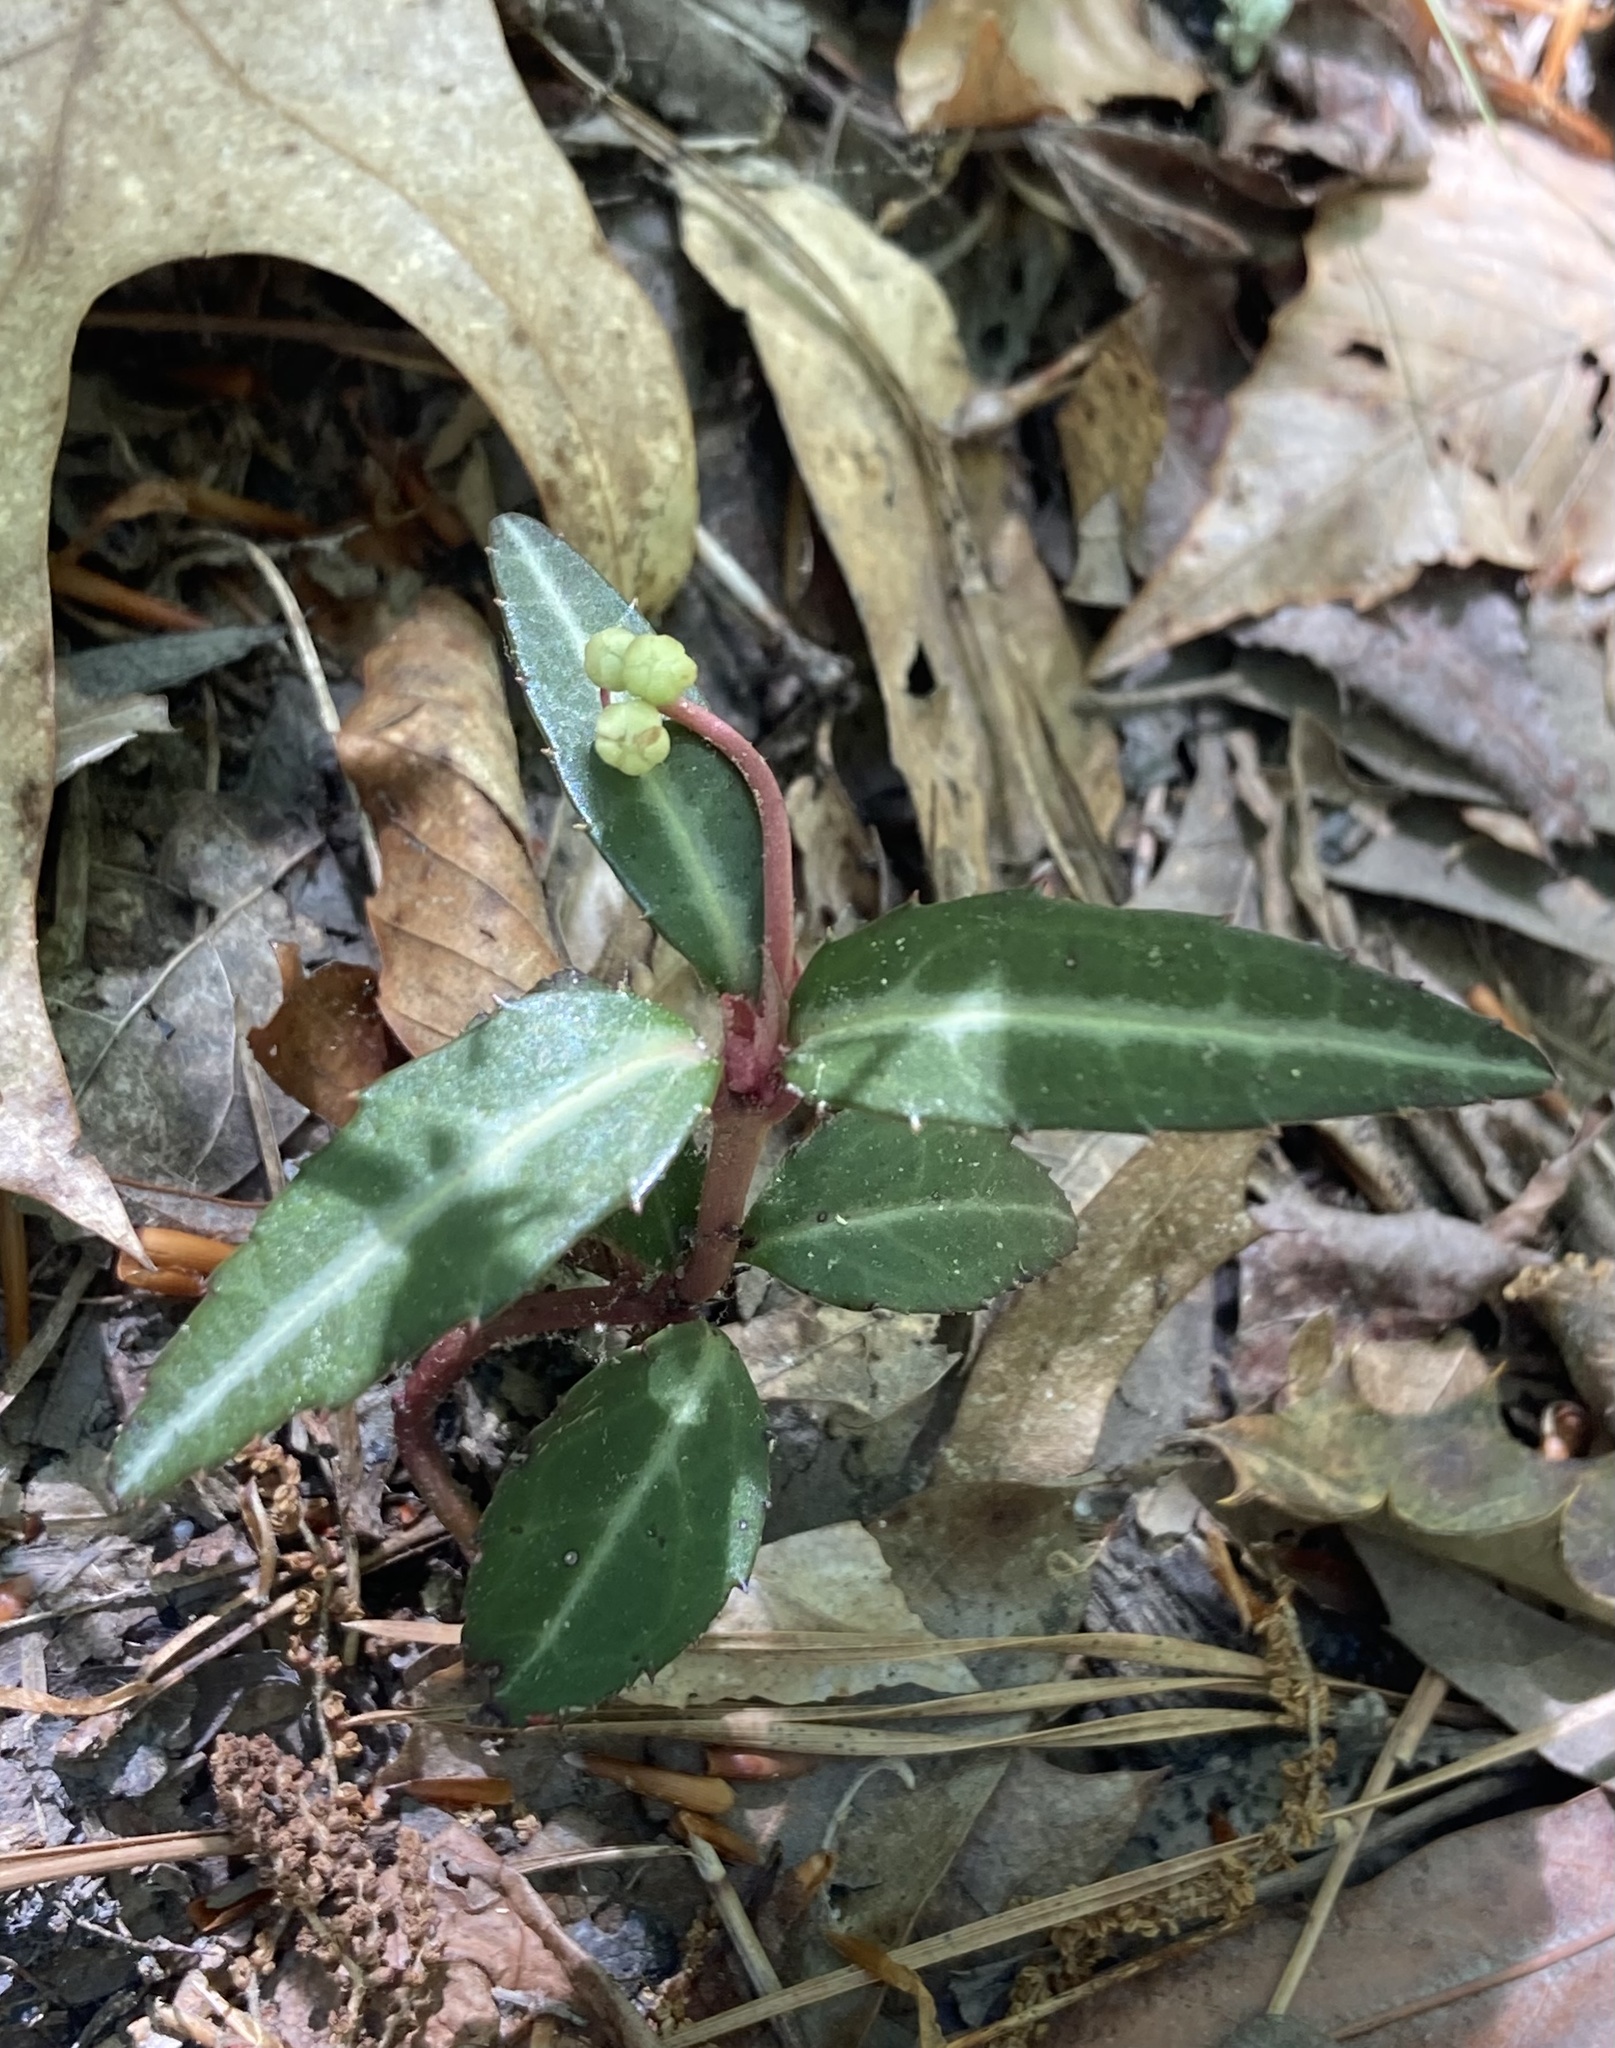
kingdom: Plantae
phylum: Tracheophyta
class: Magnoliopsida
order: Ericales
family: Ericaceae
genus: Chimaphila
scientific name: Chimaphila maculata
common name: Spotted pipsissewa
